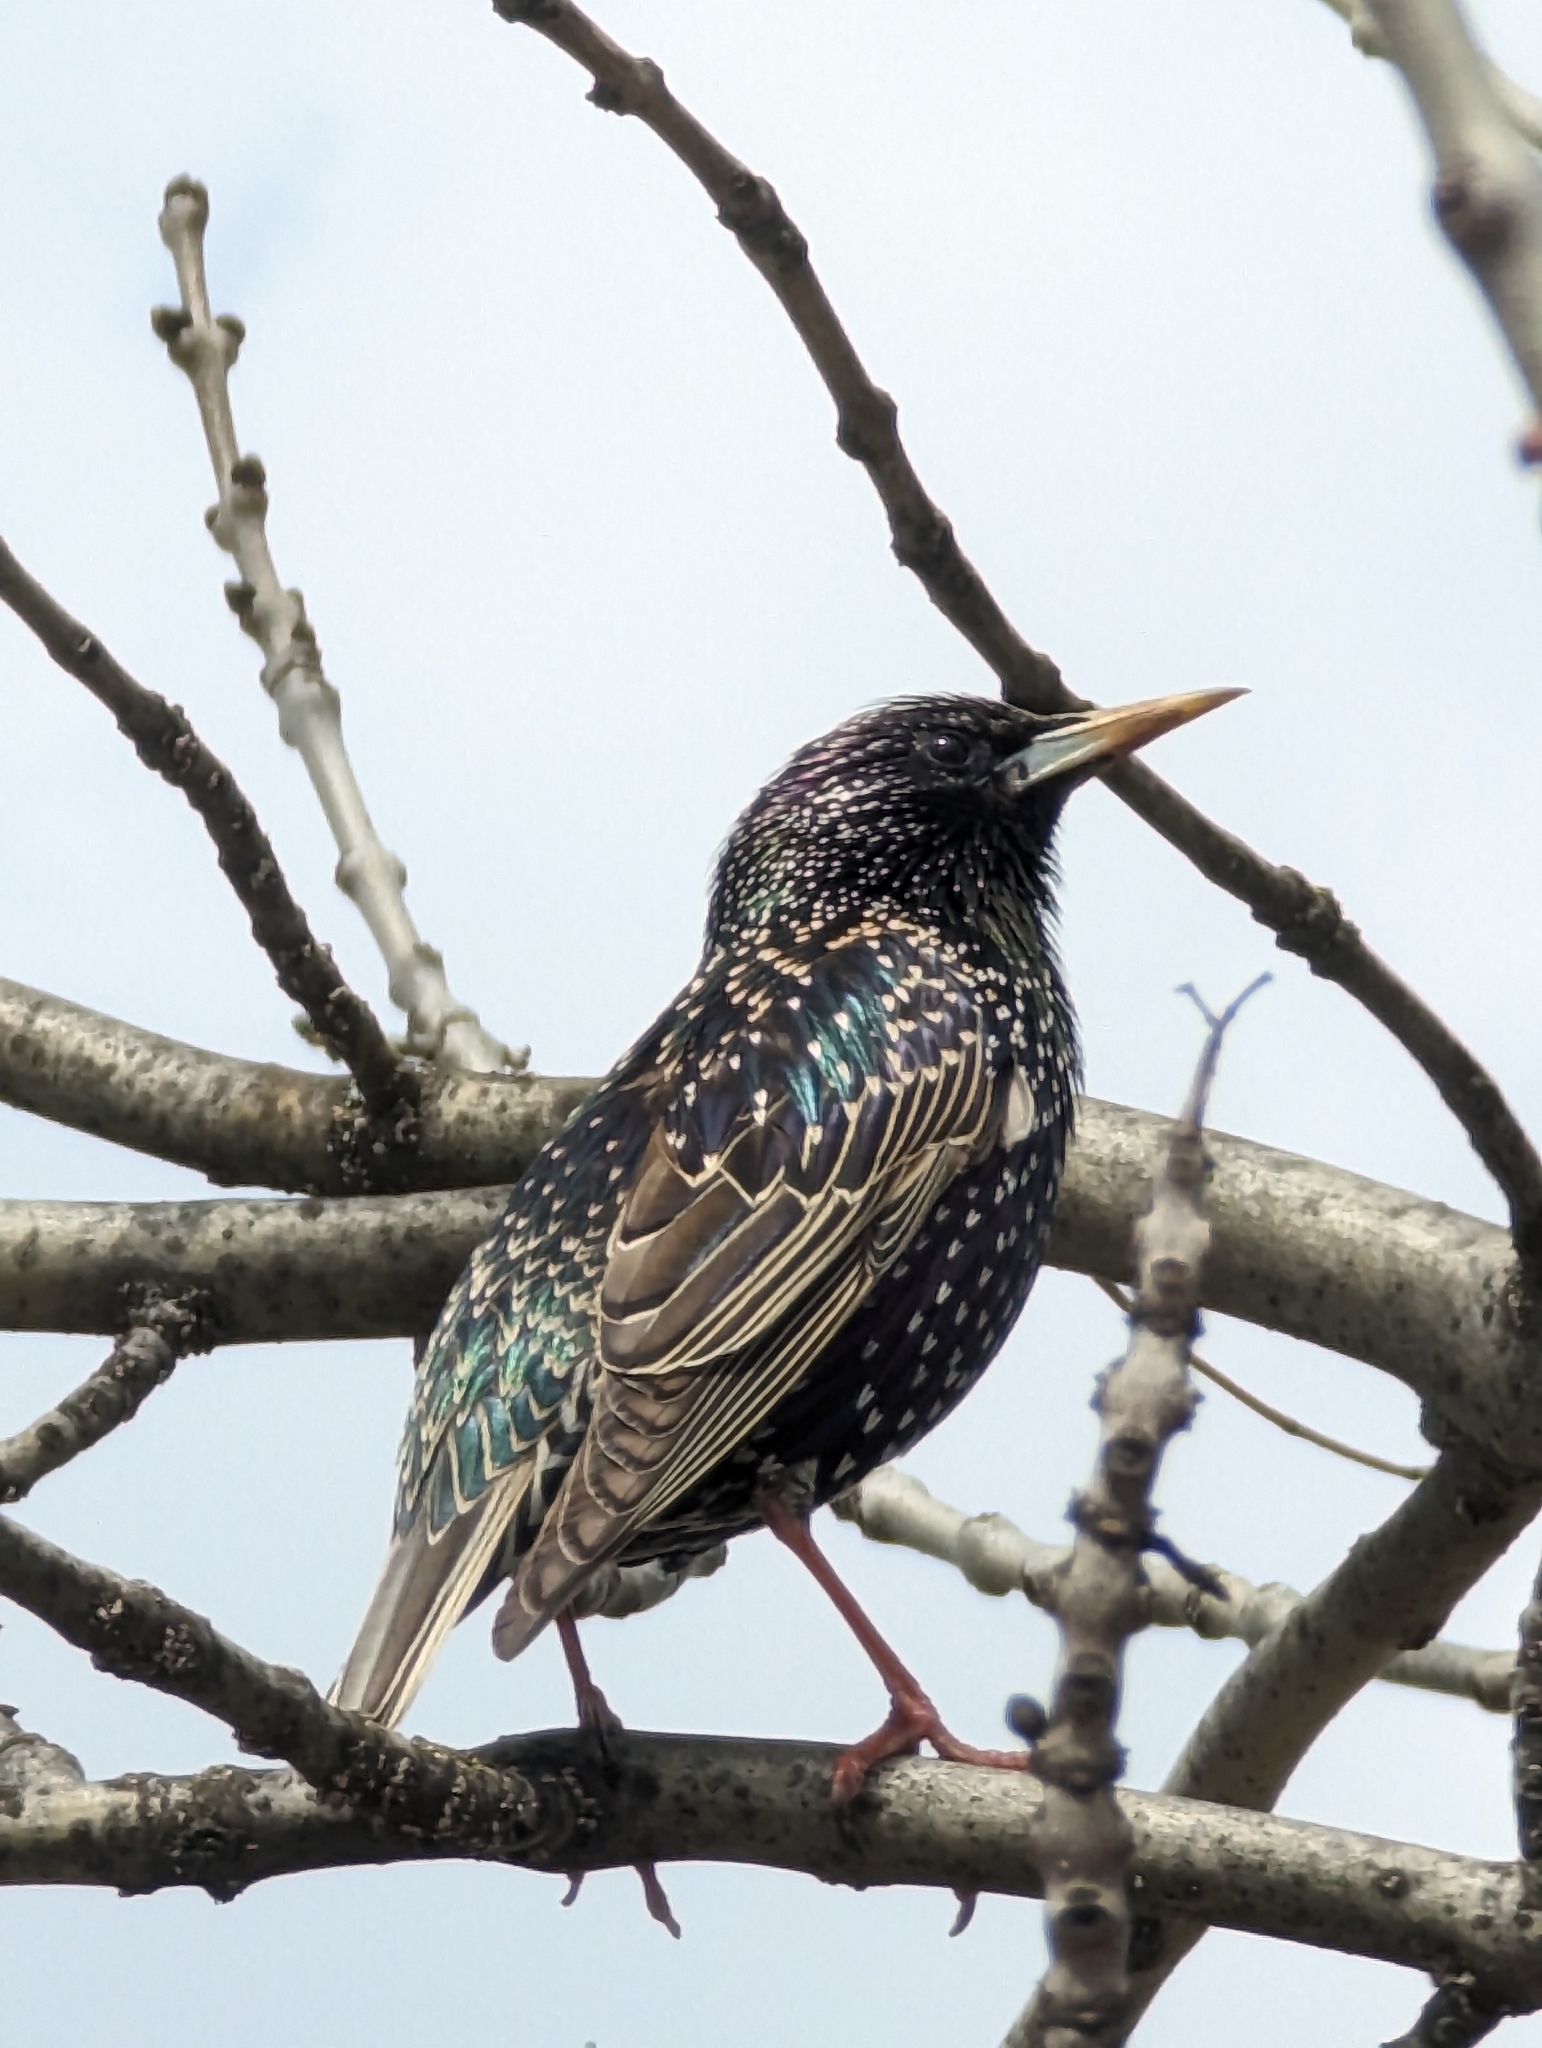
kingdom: Animalia
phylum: Chordata
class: Aves
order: Passeriformes
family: Sturnidae
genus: Sturnus
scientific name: Sturnus vulgaris
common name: Common starling
